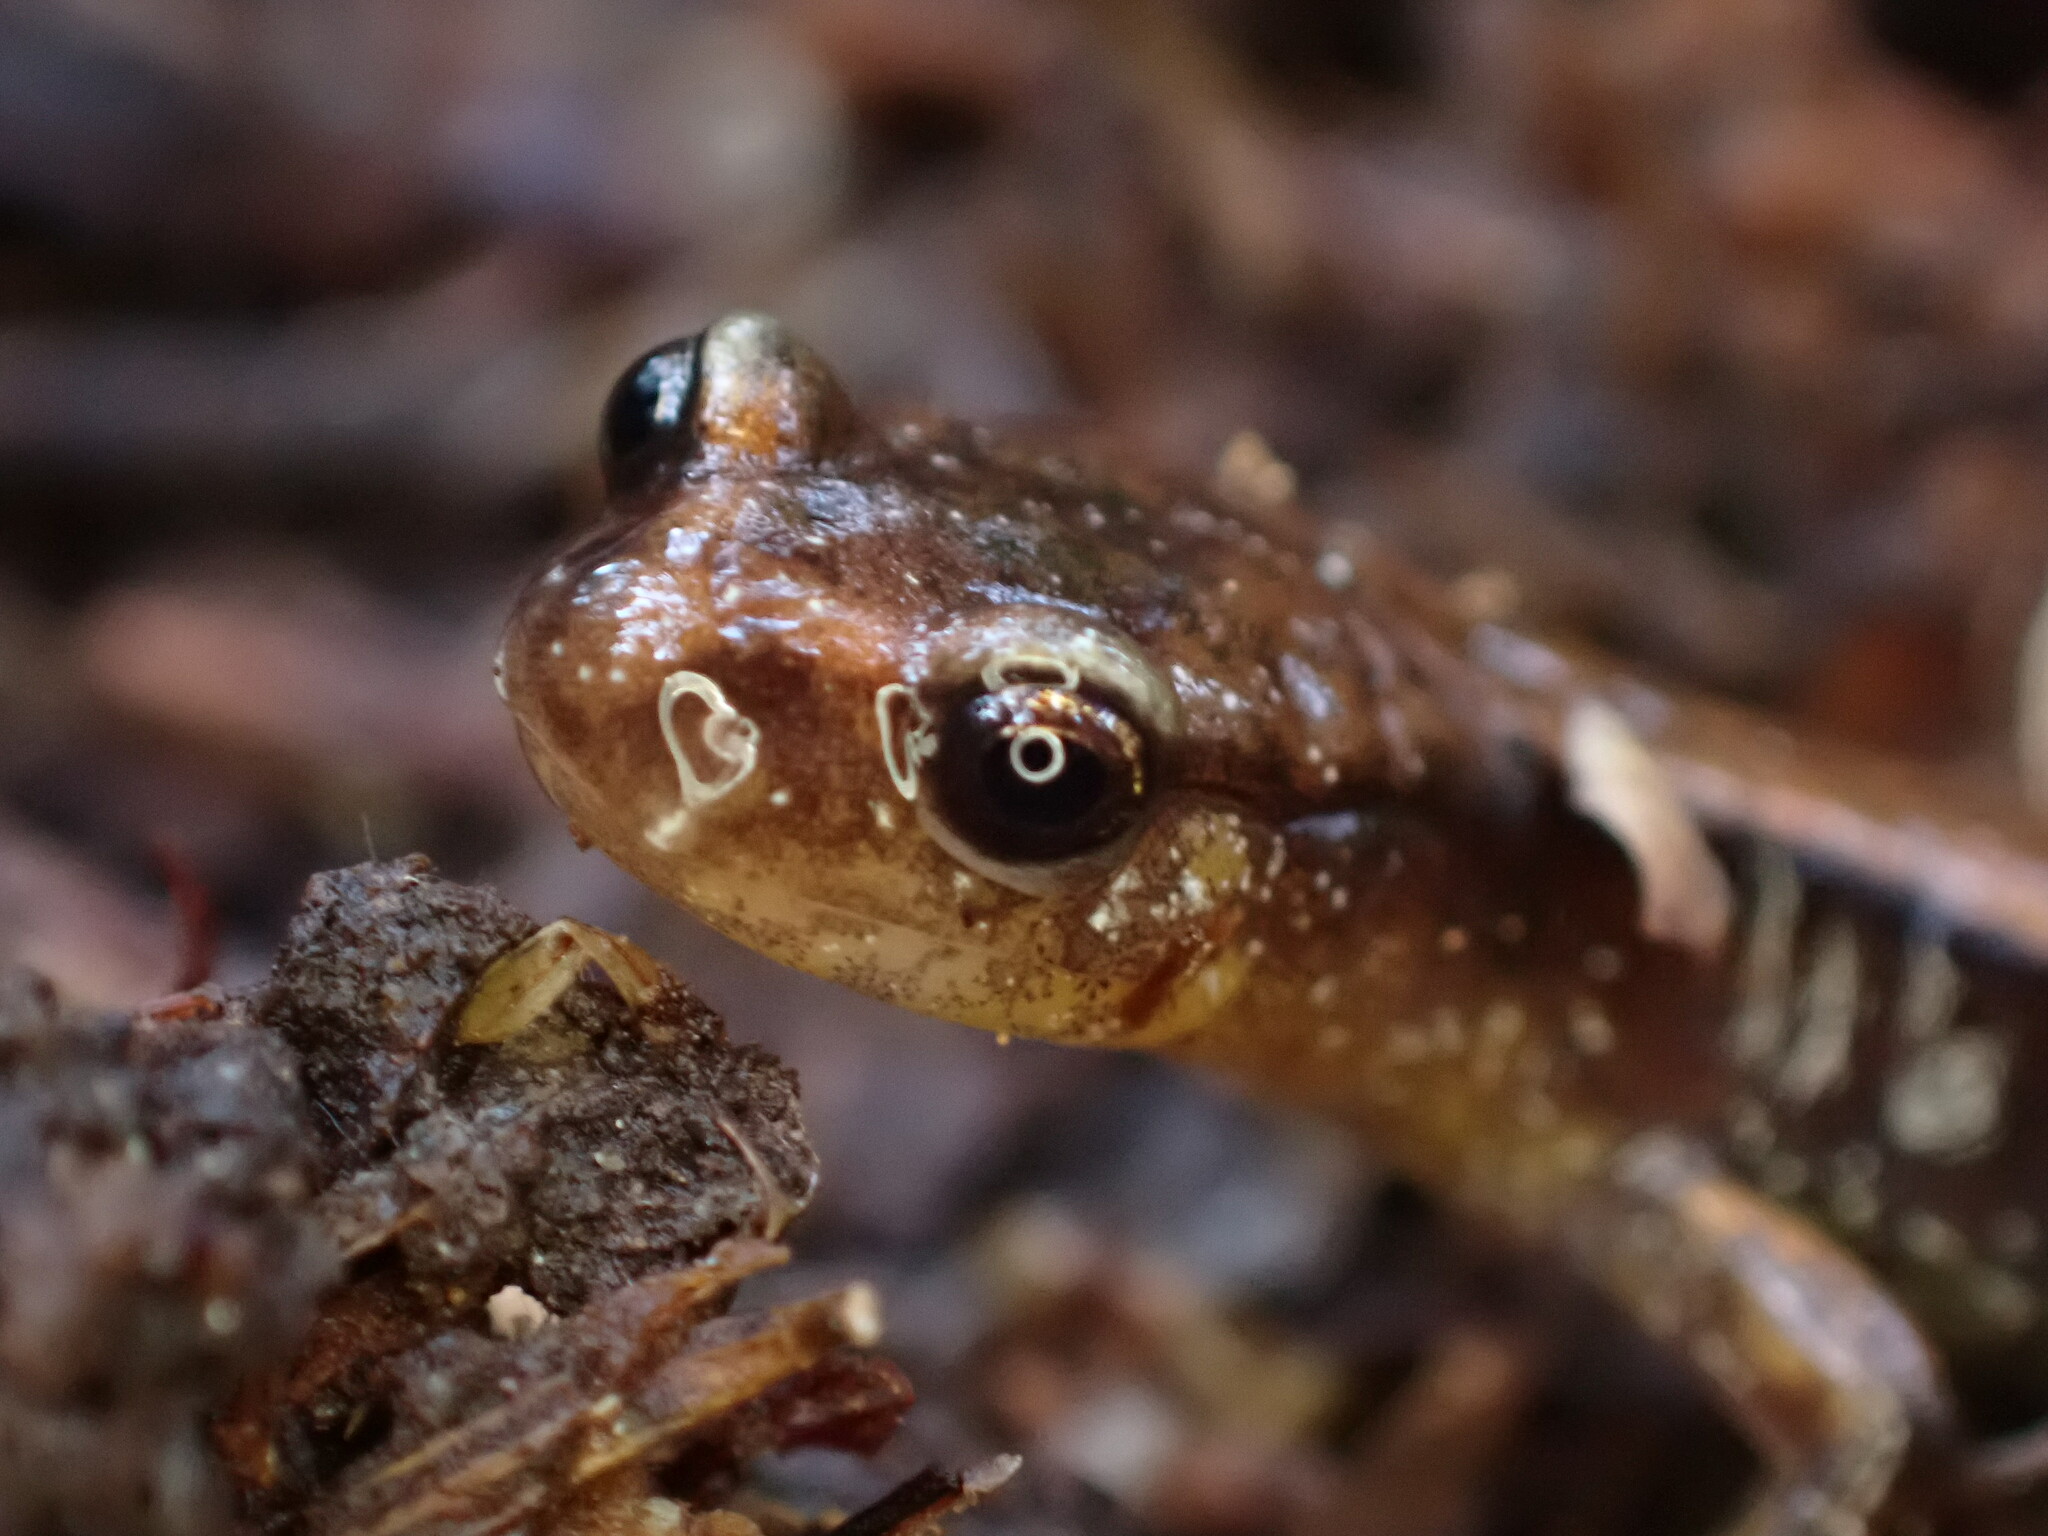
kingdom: Animalia
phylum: Chordata
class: Amphibia
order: Caudata
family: Plethodontidae
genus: Plethodon
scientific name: Plethodon vehiculum
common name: Western red-backed salamander
